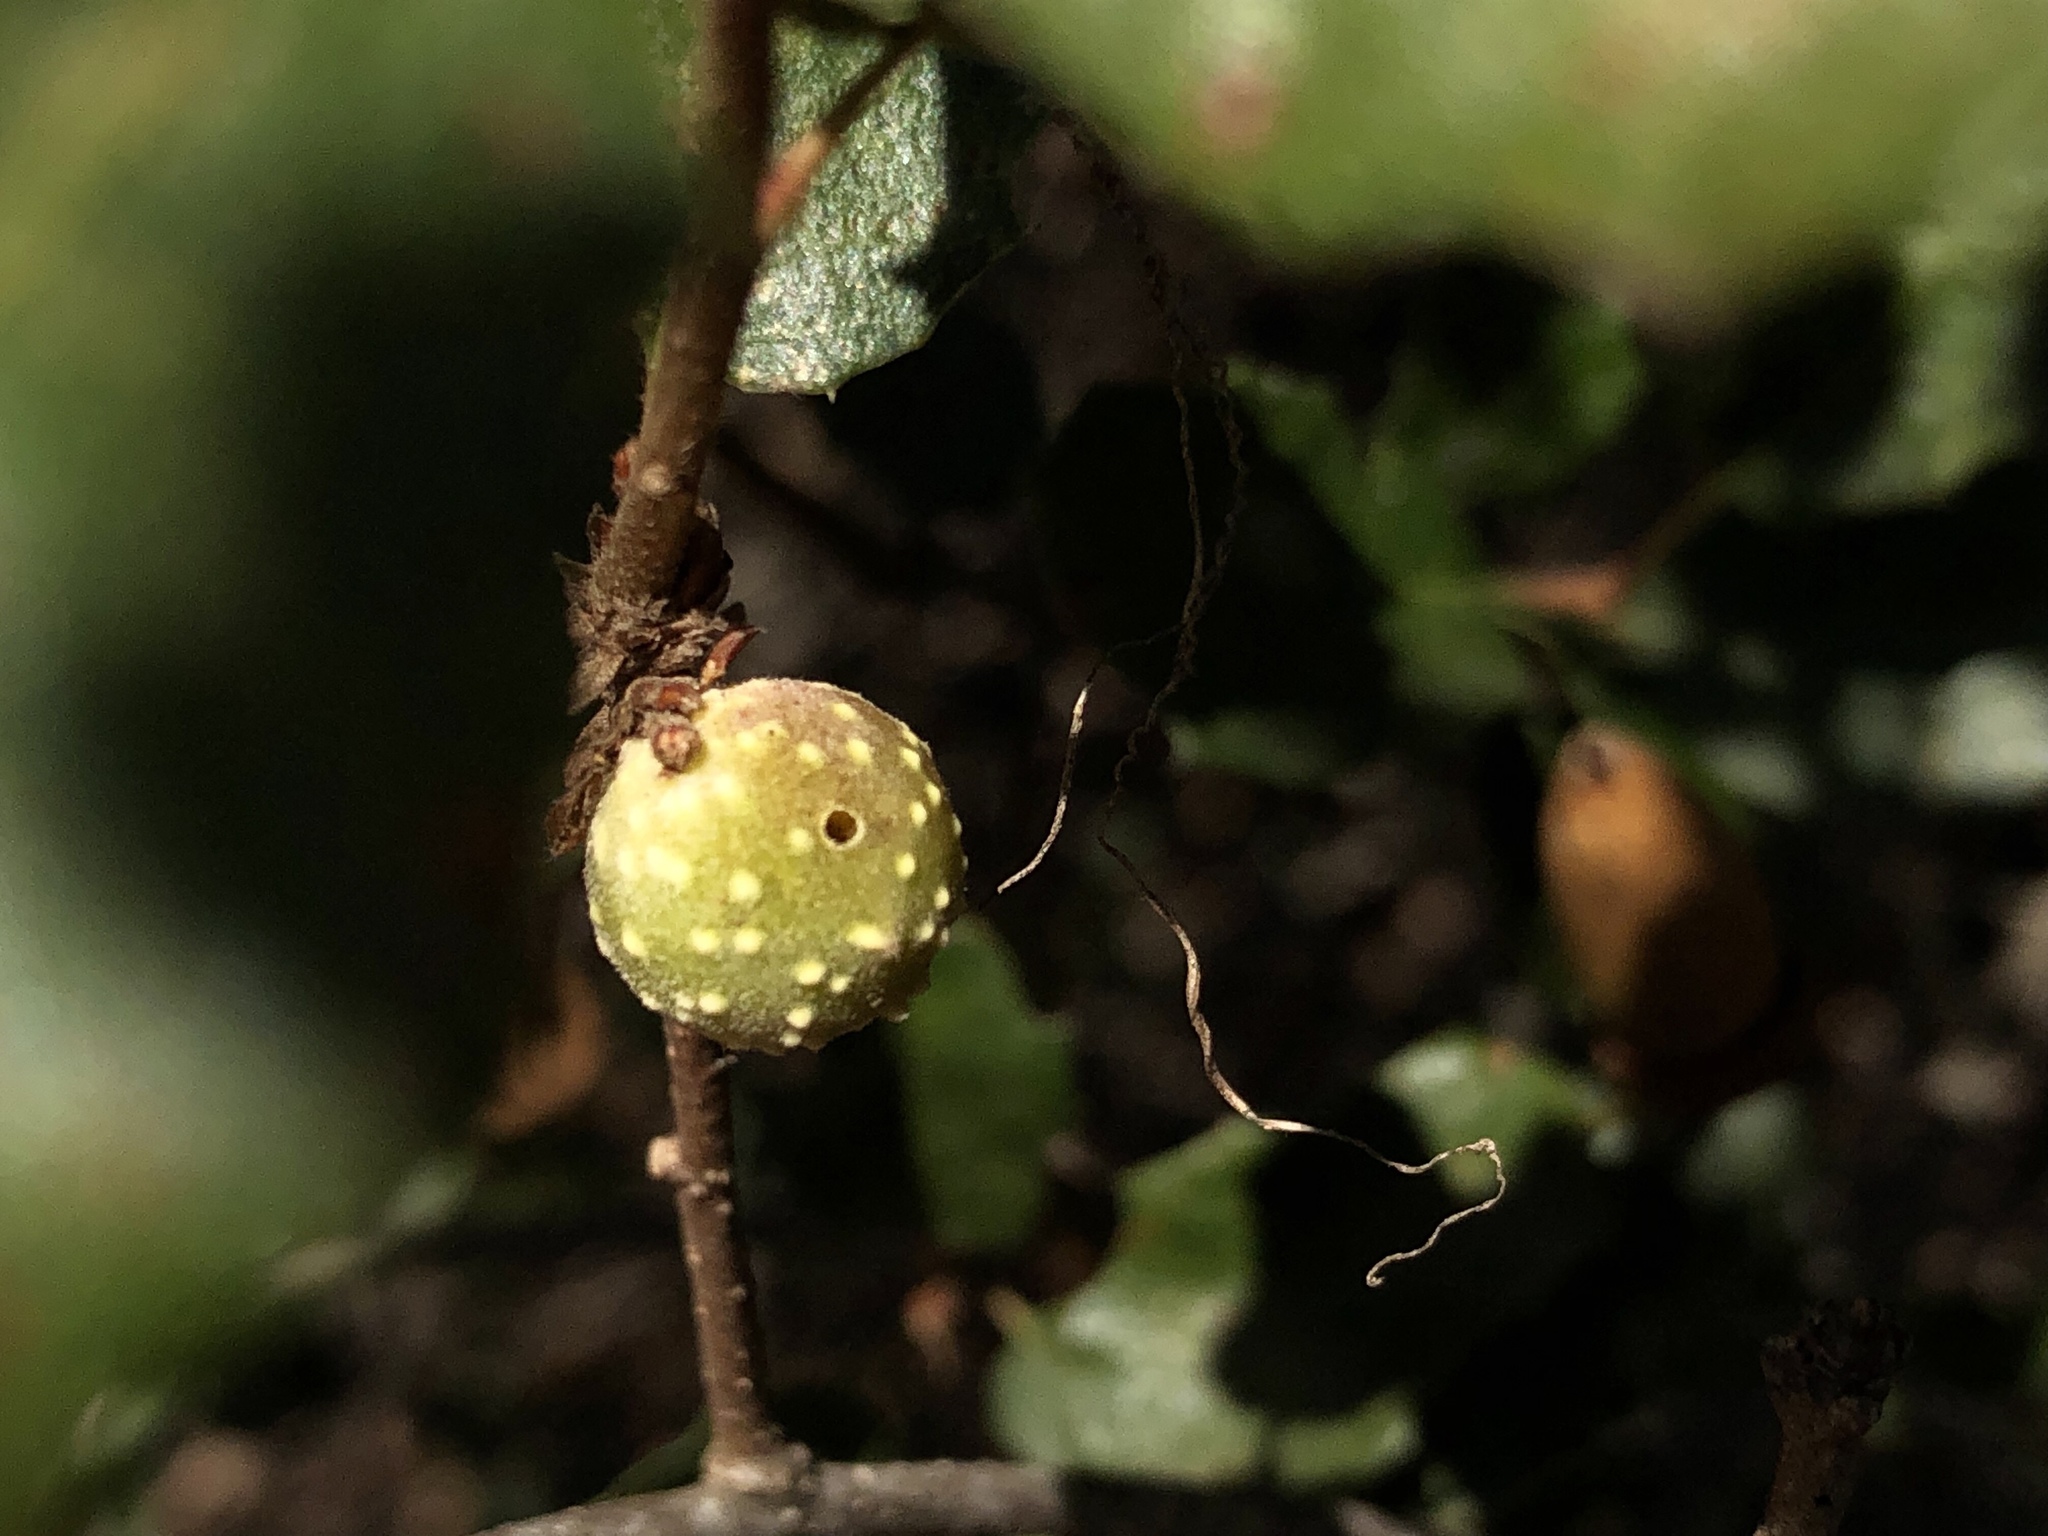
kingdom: Animalia
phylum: Arthropoda
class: Insecta
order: Hymenoptera
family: Cynipidae
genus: Burnettweldia
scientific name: Burnettweldia
